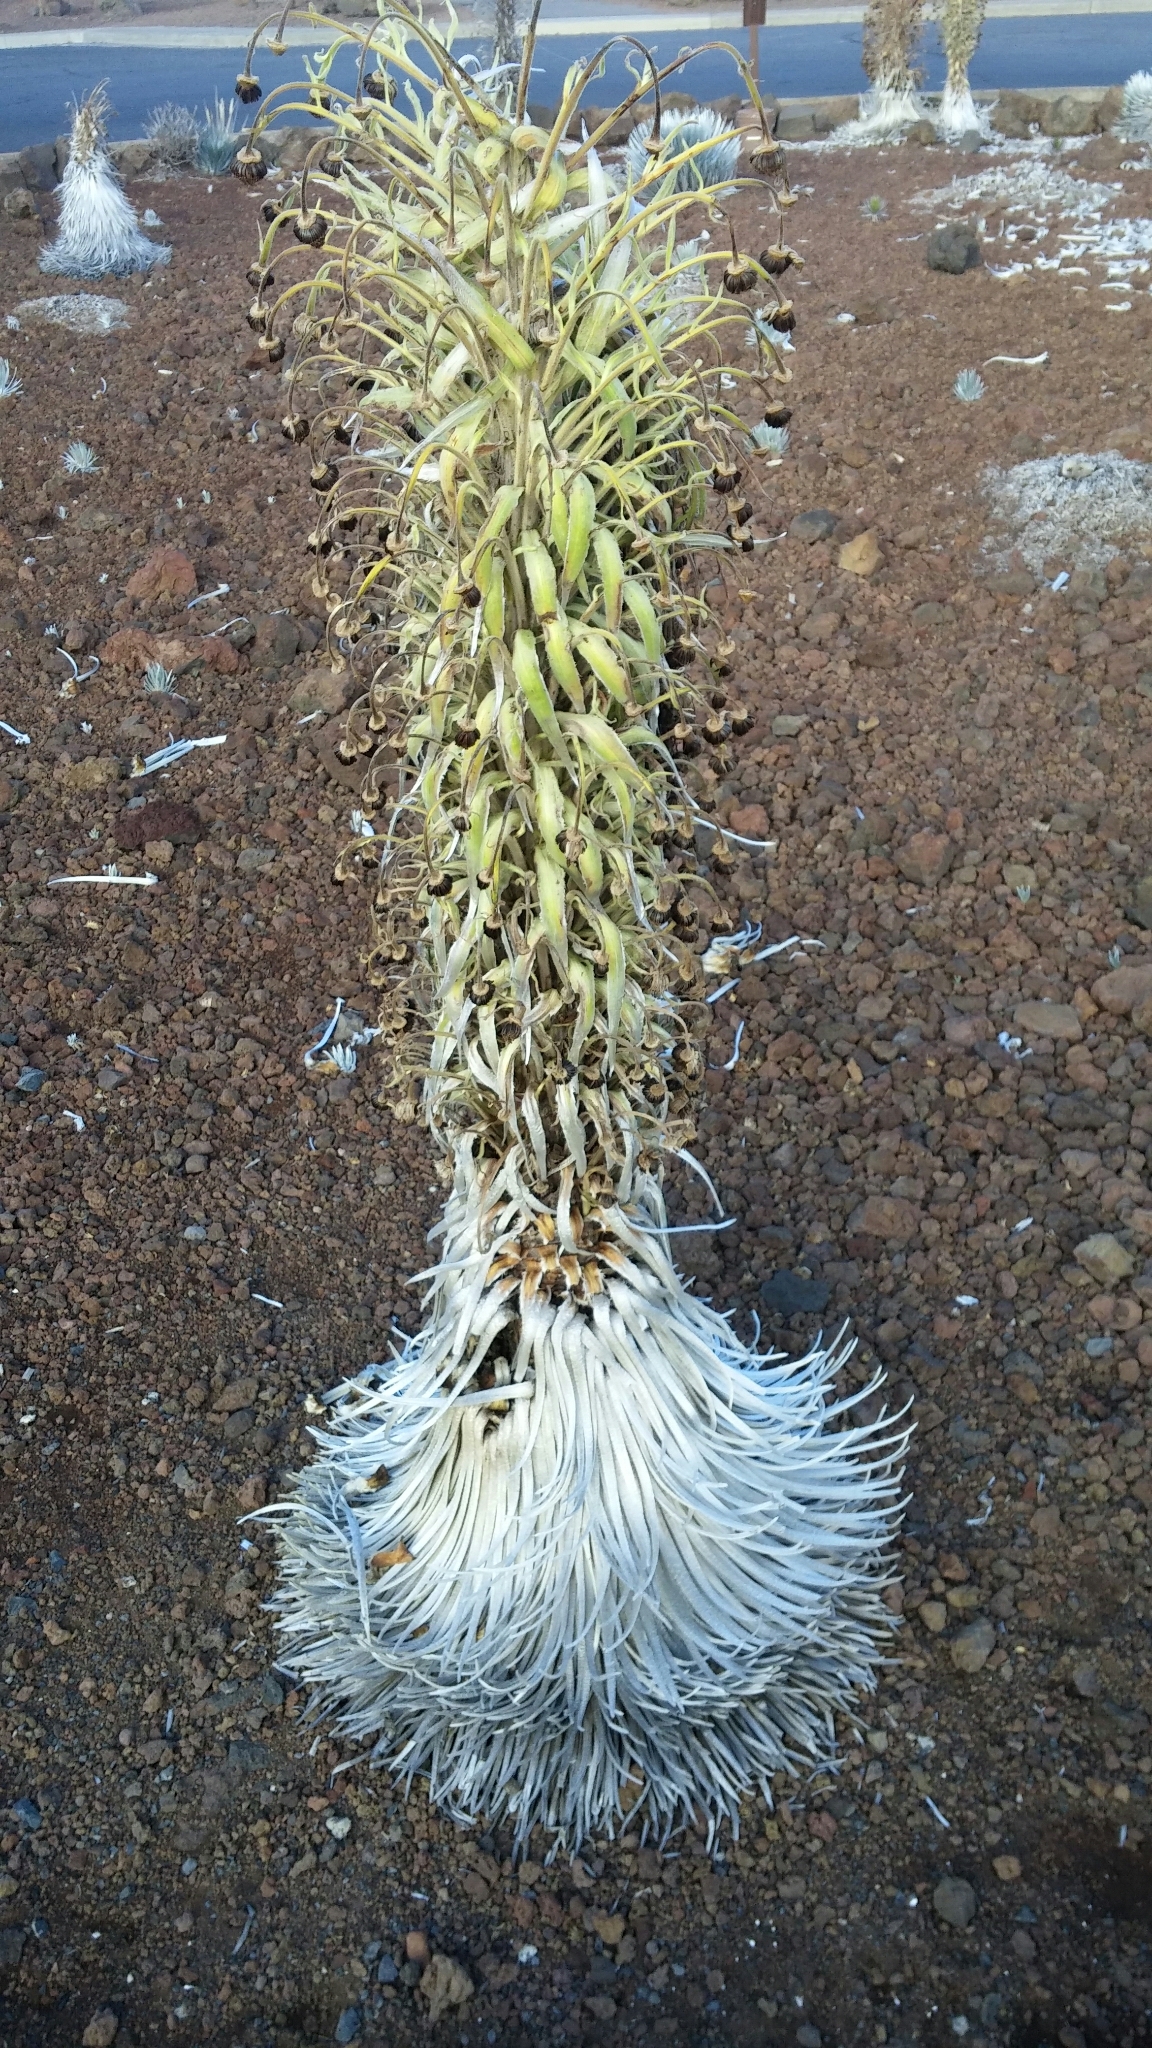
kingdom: Plantae
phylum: Tracheophyta
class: Magnoliopsida
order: Asterales
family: Asteraceae
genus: Argyroxiphium
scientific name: Argyroxiphium sandwicense
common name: Silversword
